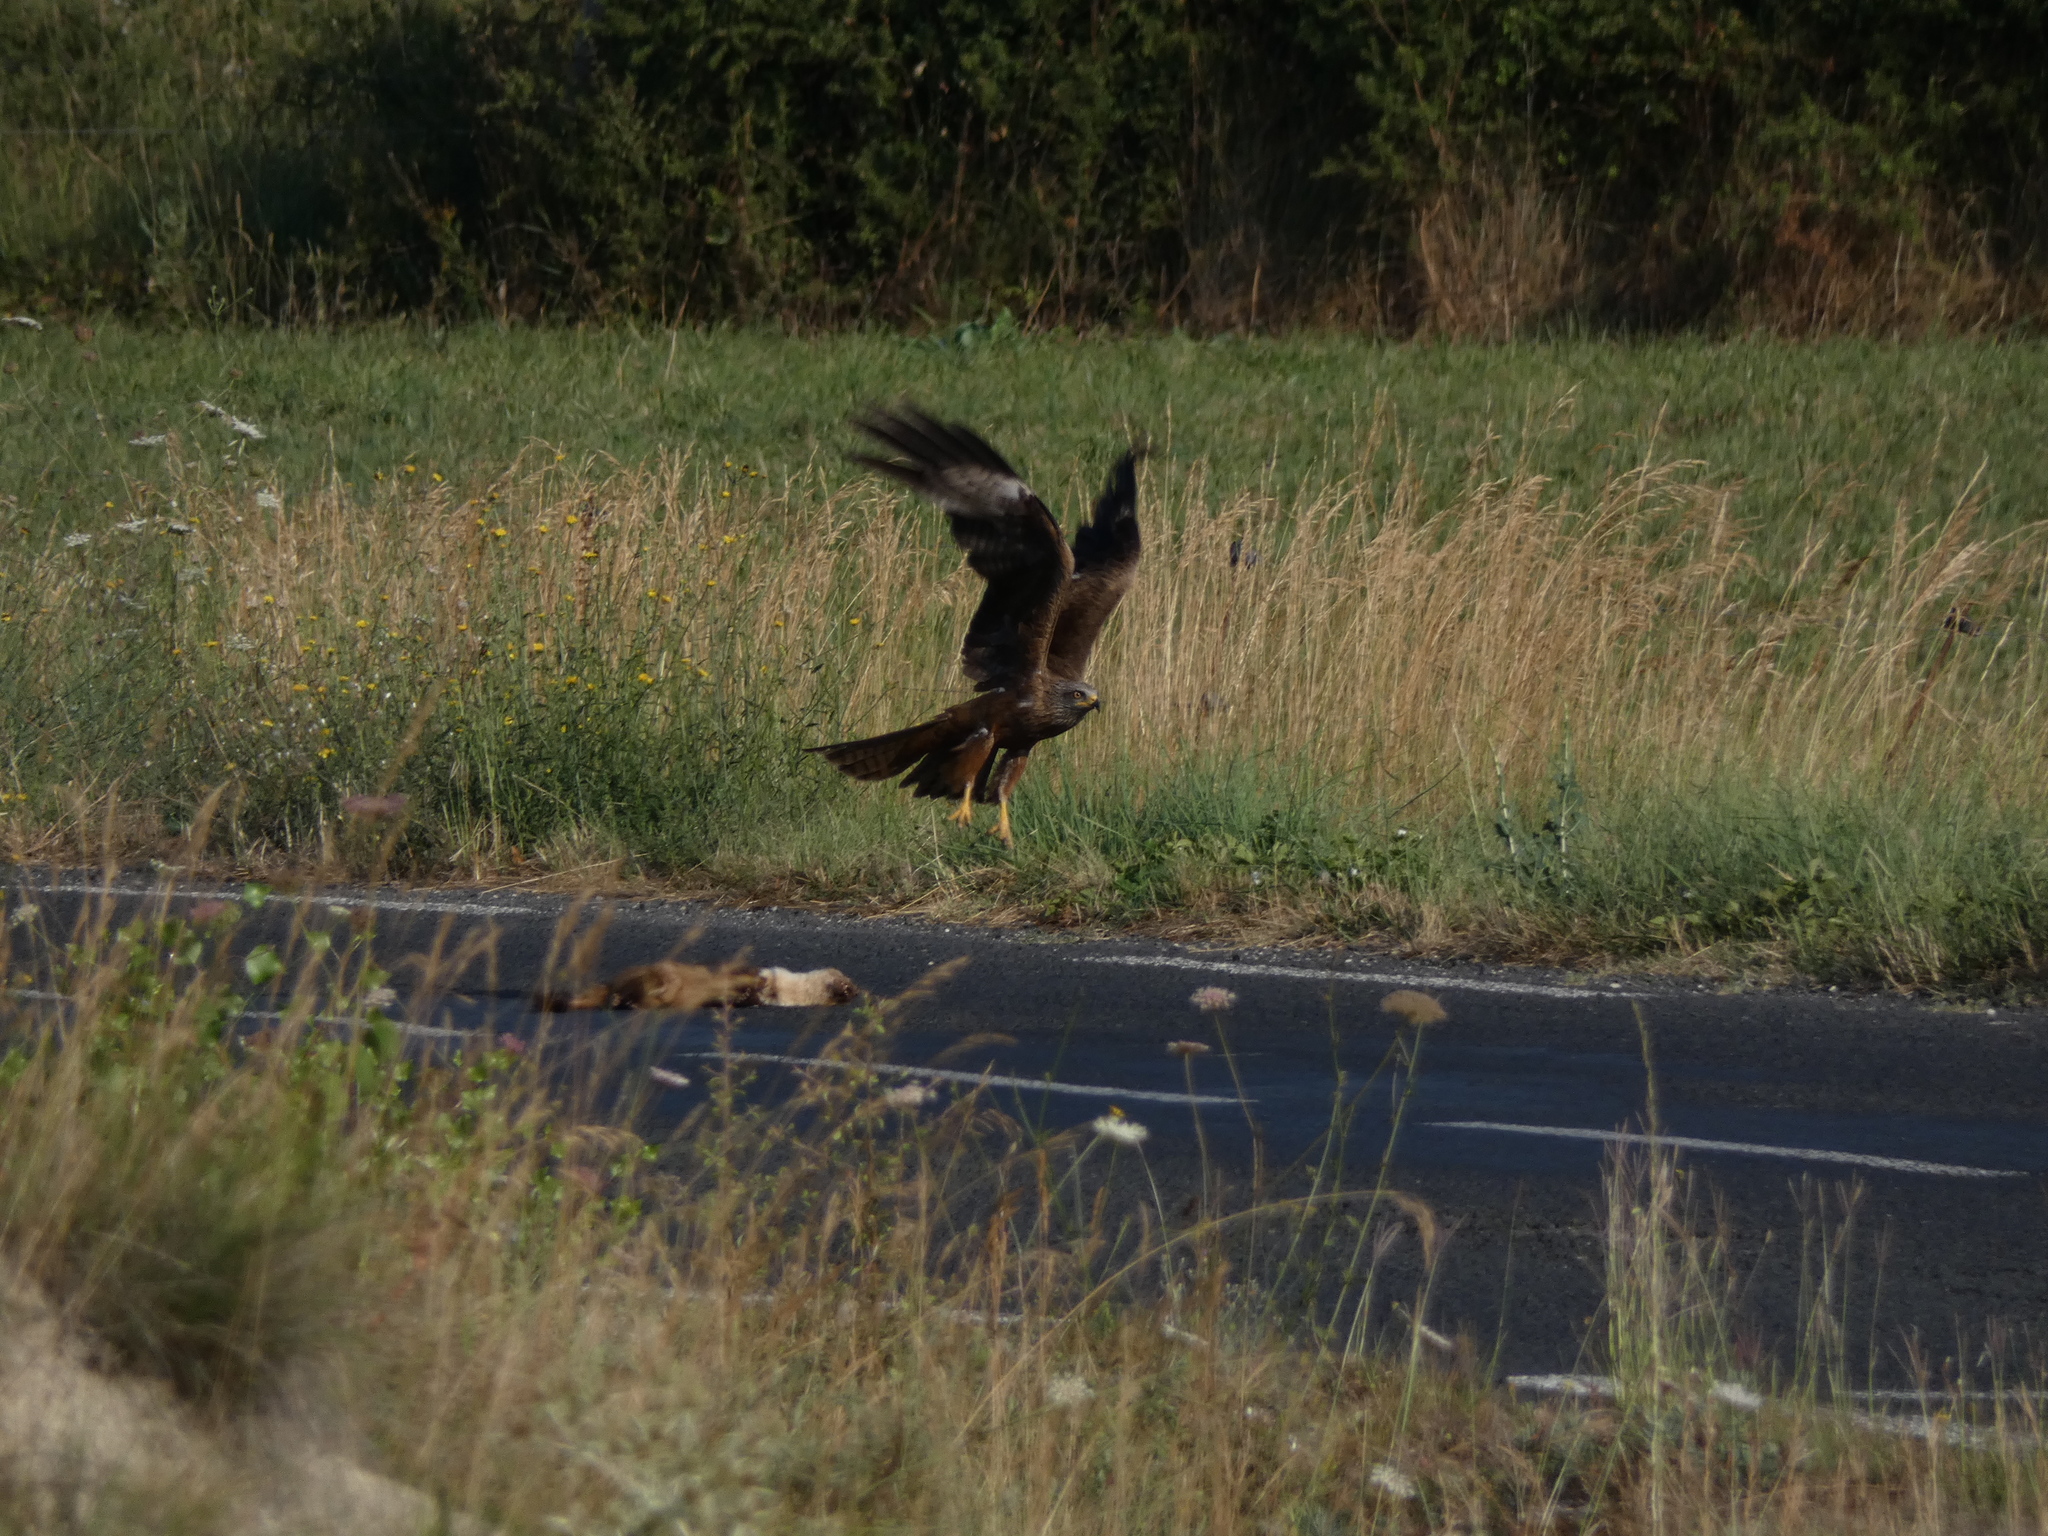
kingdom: Animalia
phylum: Chordata
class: Aves
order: Accipitriformes
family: Accipitridae
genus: Milvus
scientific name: Milvus migrans
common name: Black kite
